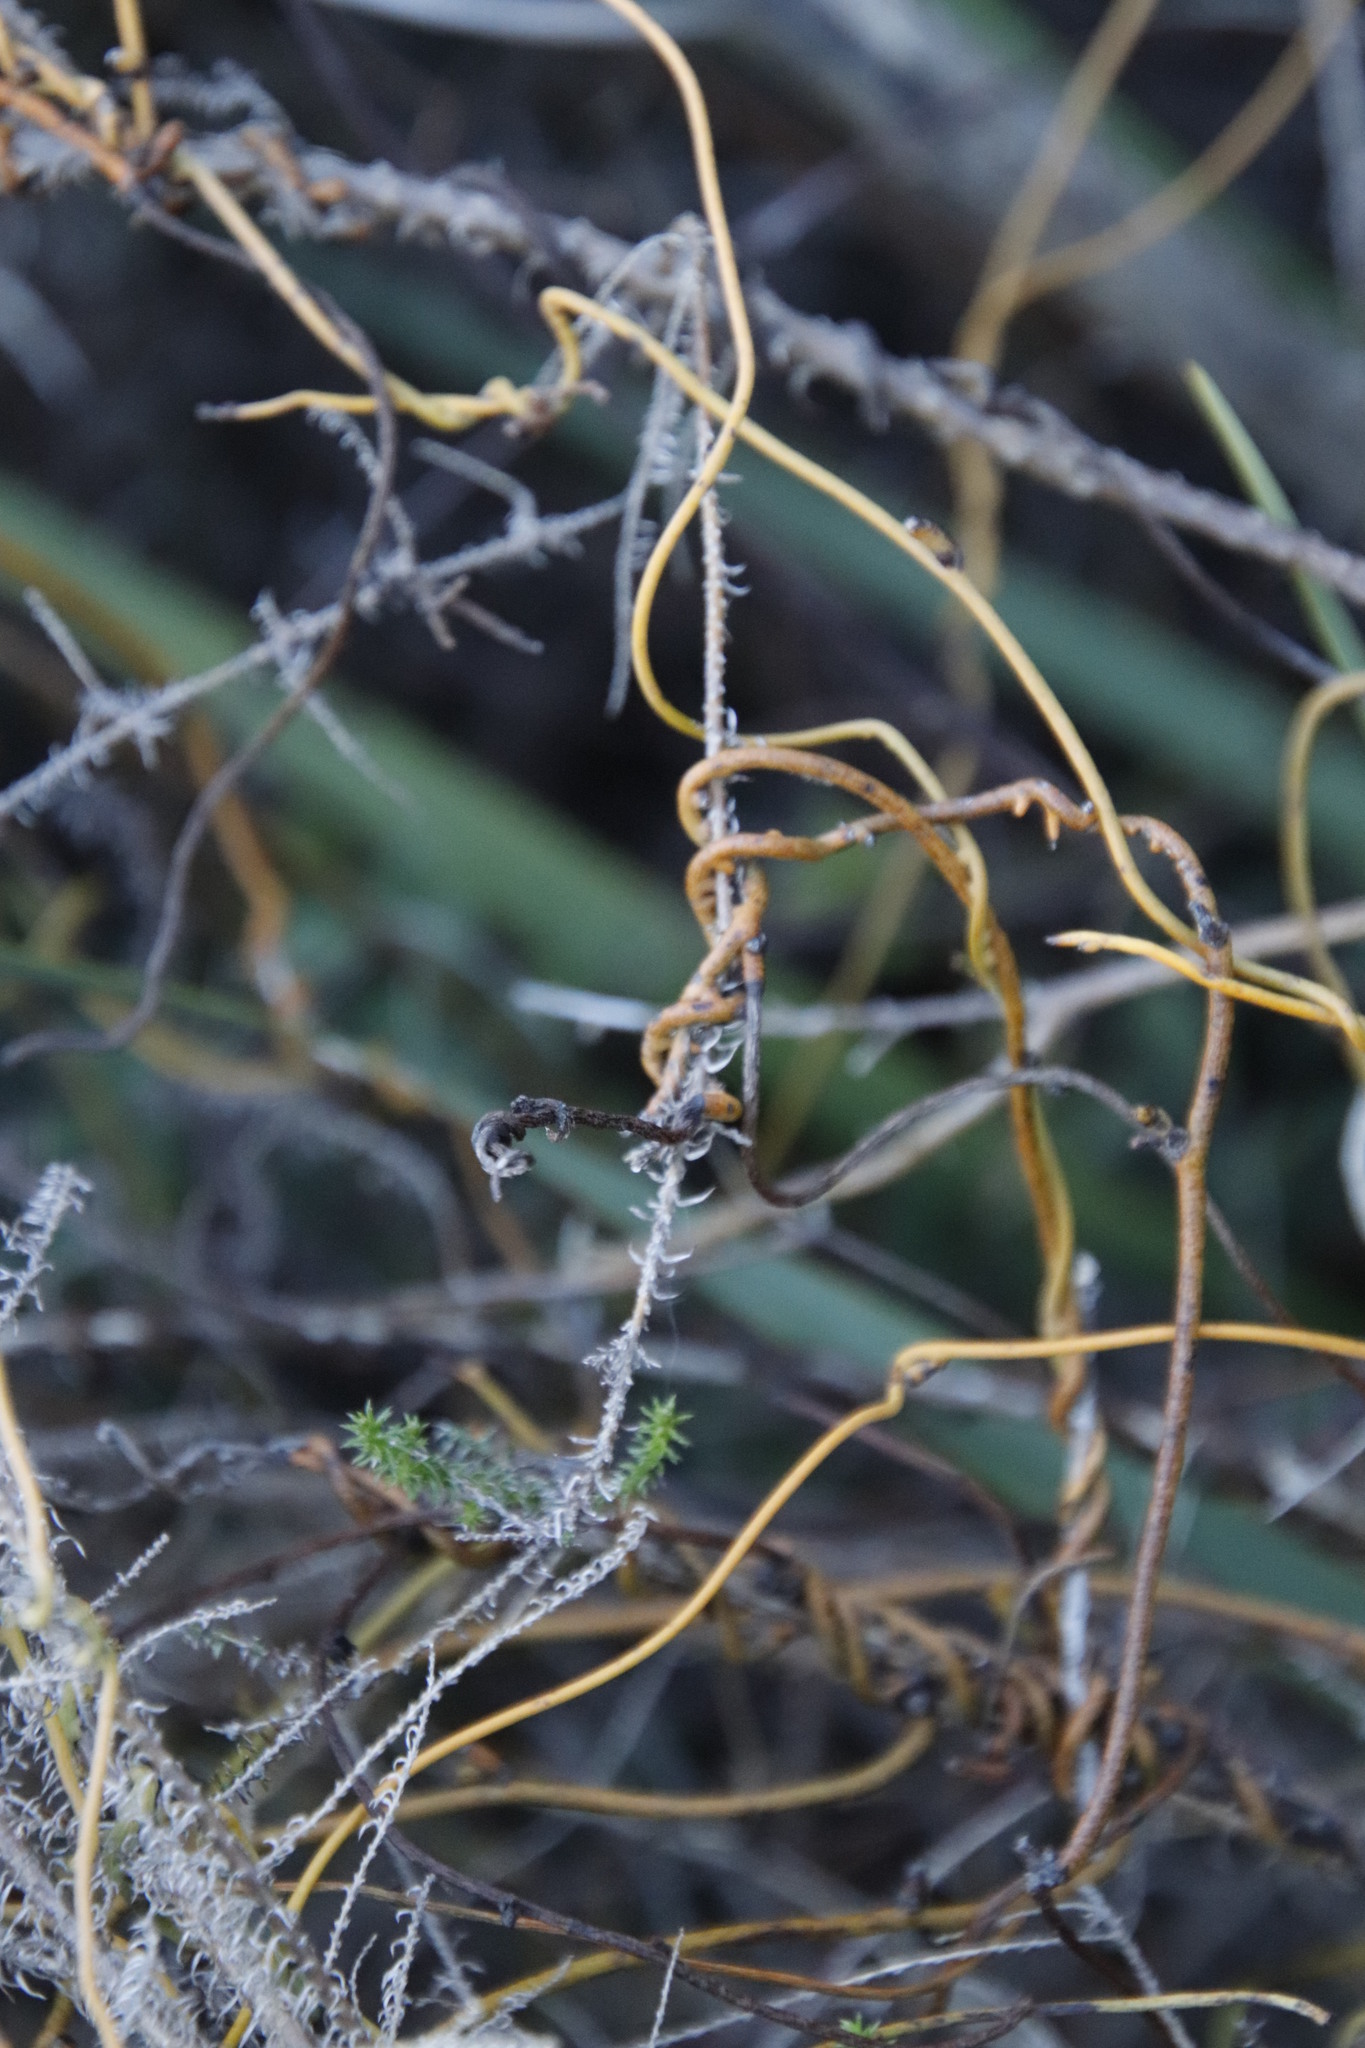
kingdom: Plantae
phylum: Tracheophyta
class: Magnoliopsida
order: Laurales
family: Lauraceae
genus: Cassytha
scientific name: Cassytha ciliolata
